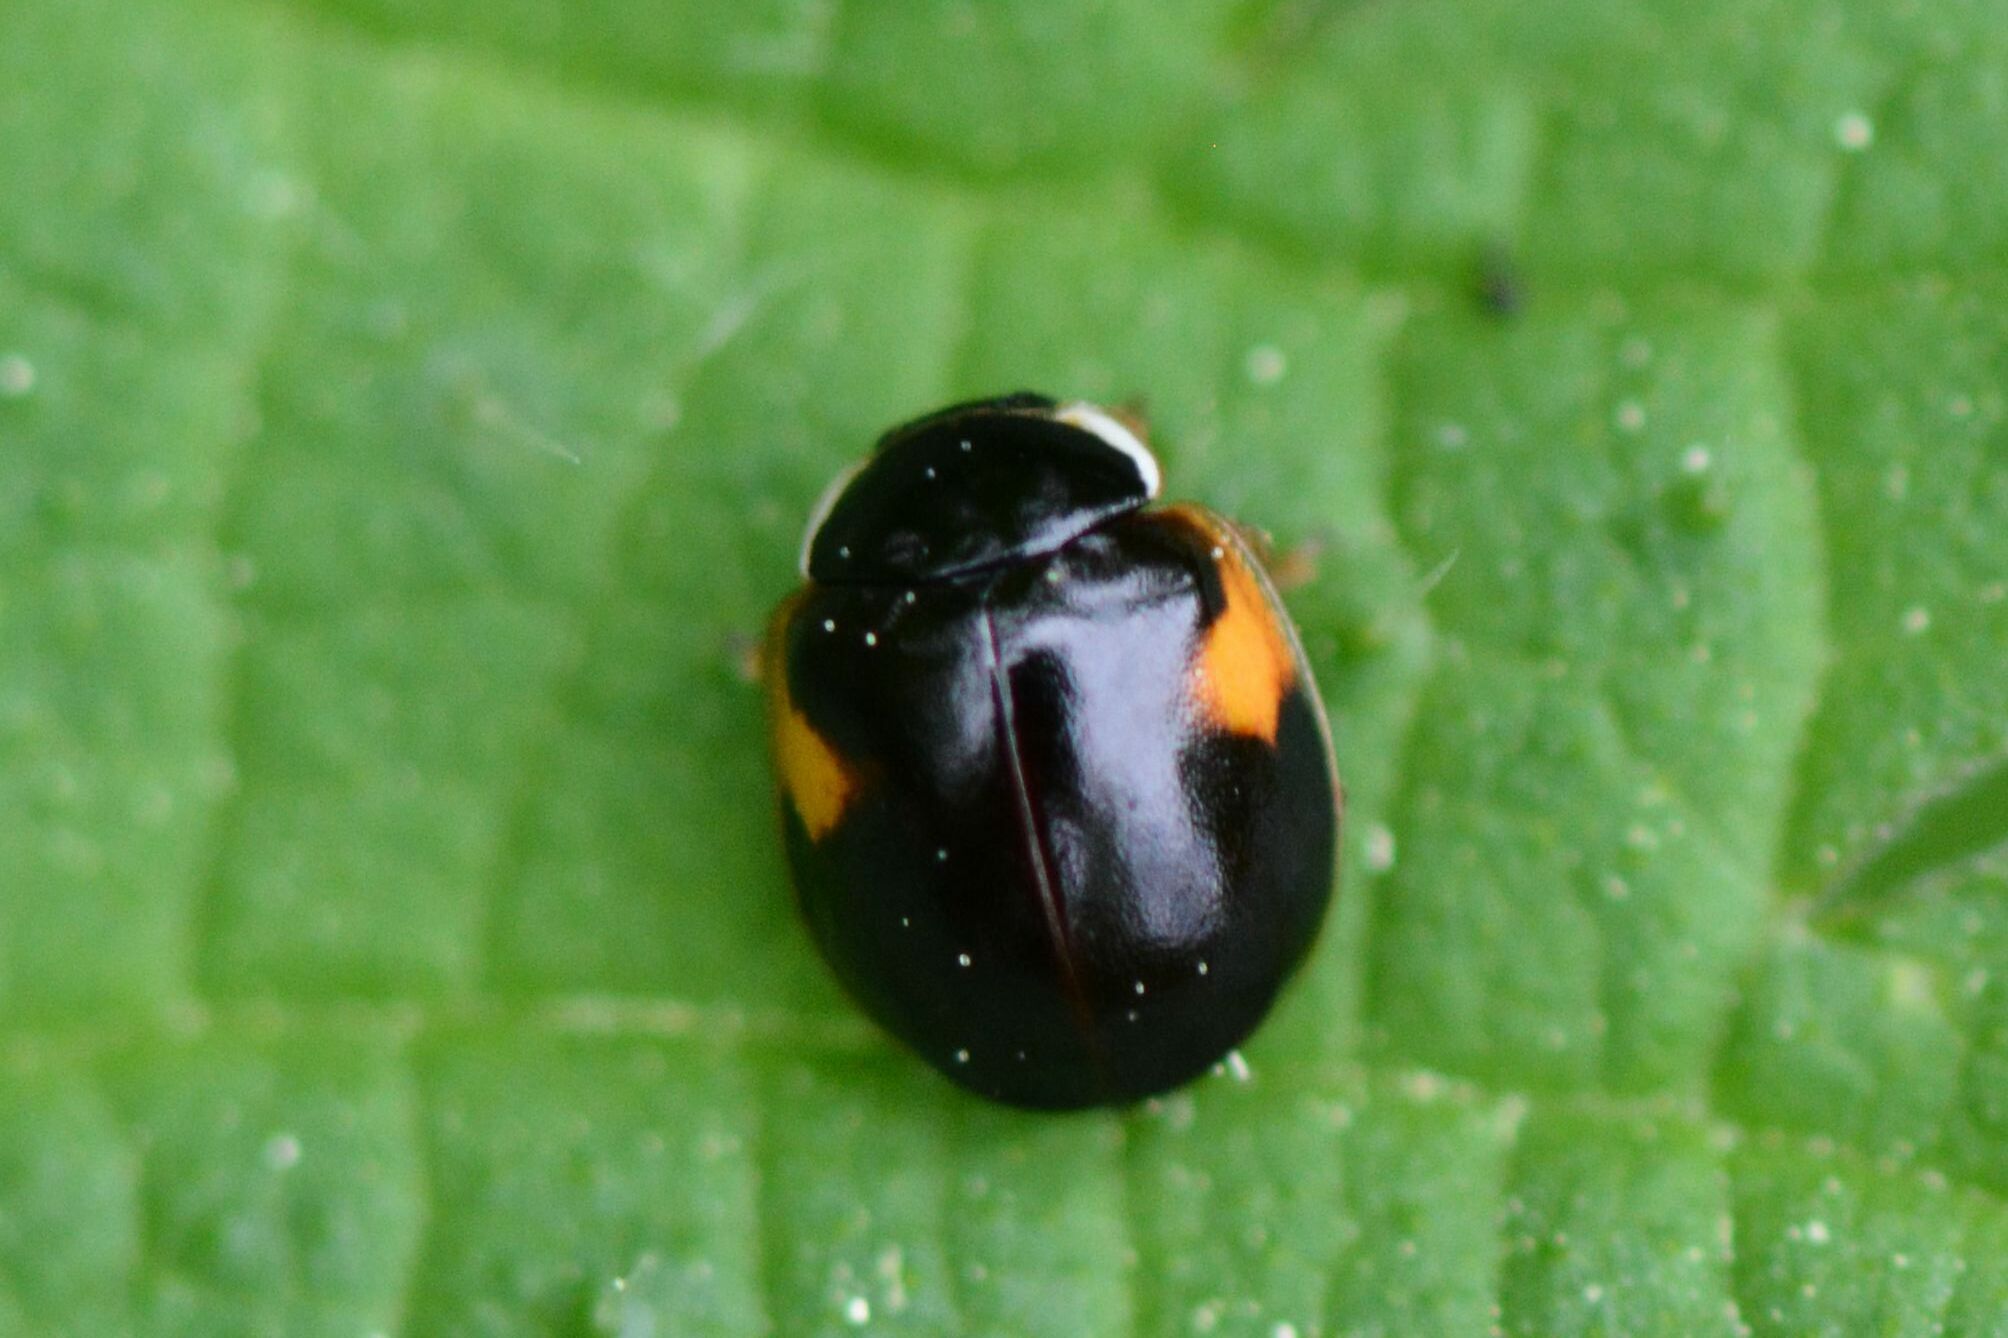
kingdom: Animalia
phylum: Arthropoda
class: Insecta
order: Coleoptera
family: Coccinellidae
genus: Adalia
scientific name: Adalia decempunctata
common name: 10-spot ladybird
